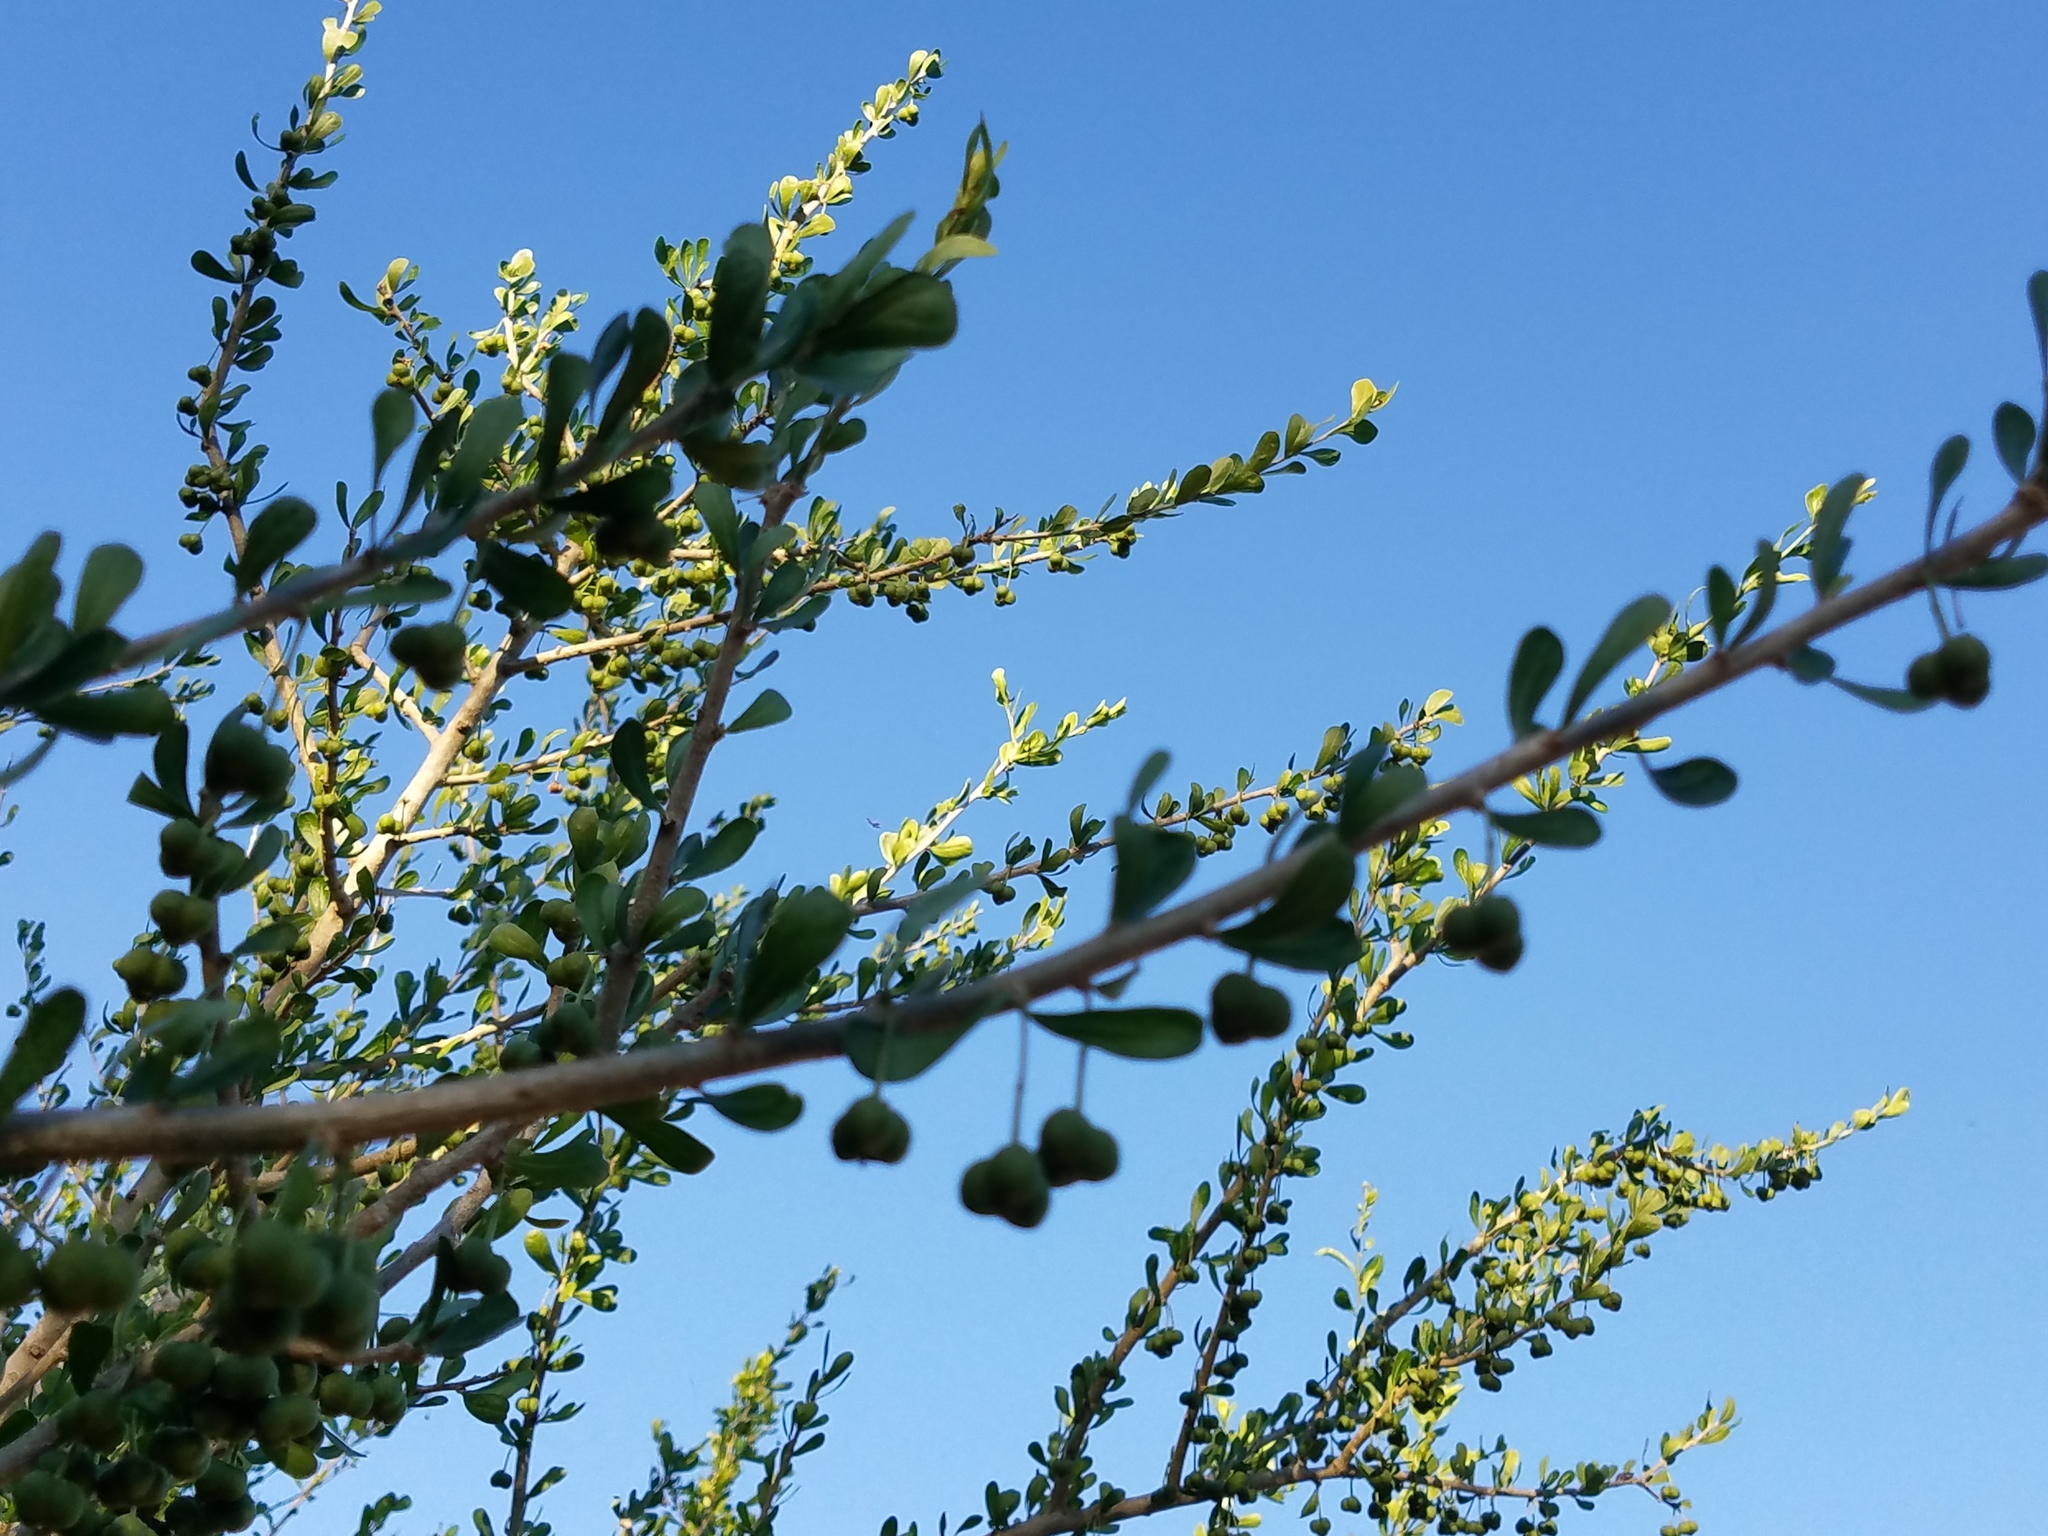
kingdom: Plantae
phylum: Tracheophyta
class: Magnoliopsida
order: Malpighiales
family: Euphorbiaceae
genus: Adelia
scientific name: Adelia vaseyi
